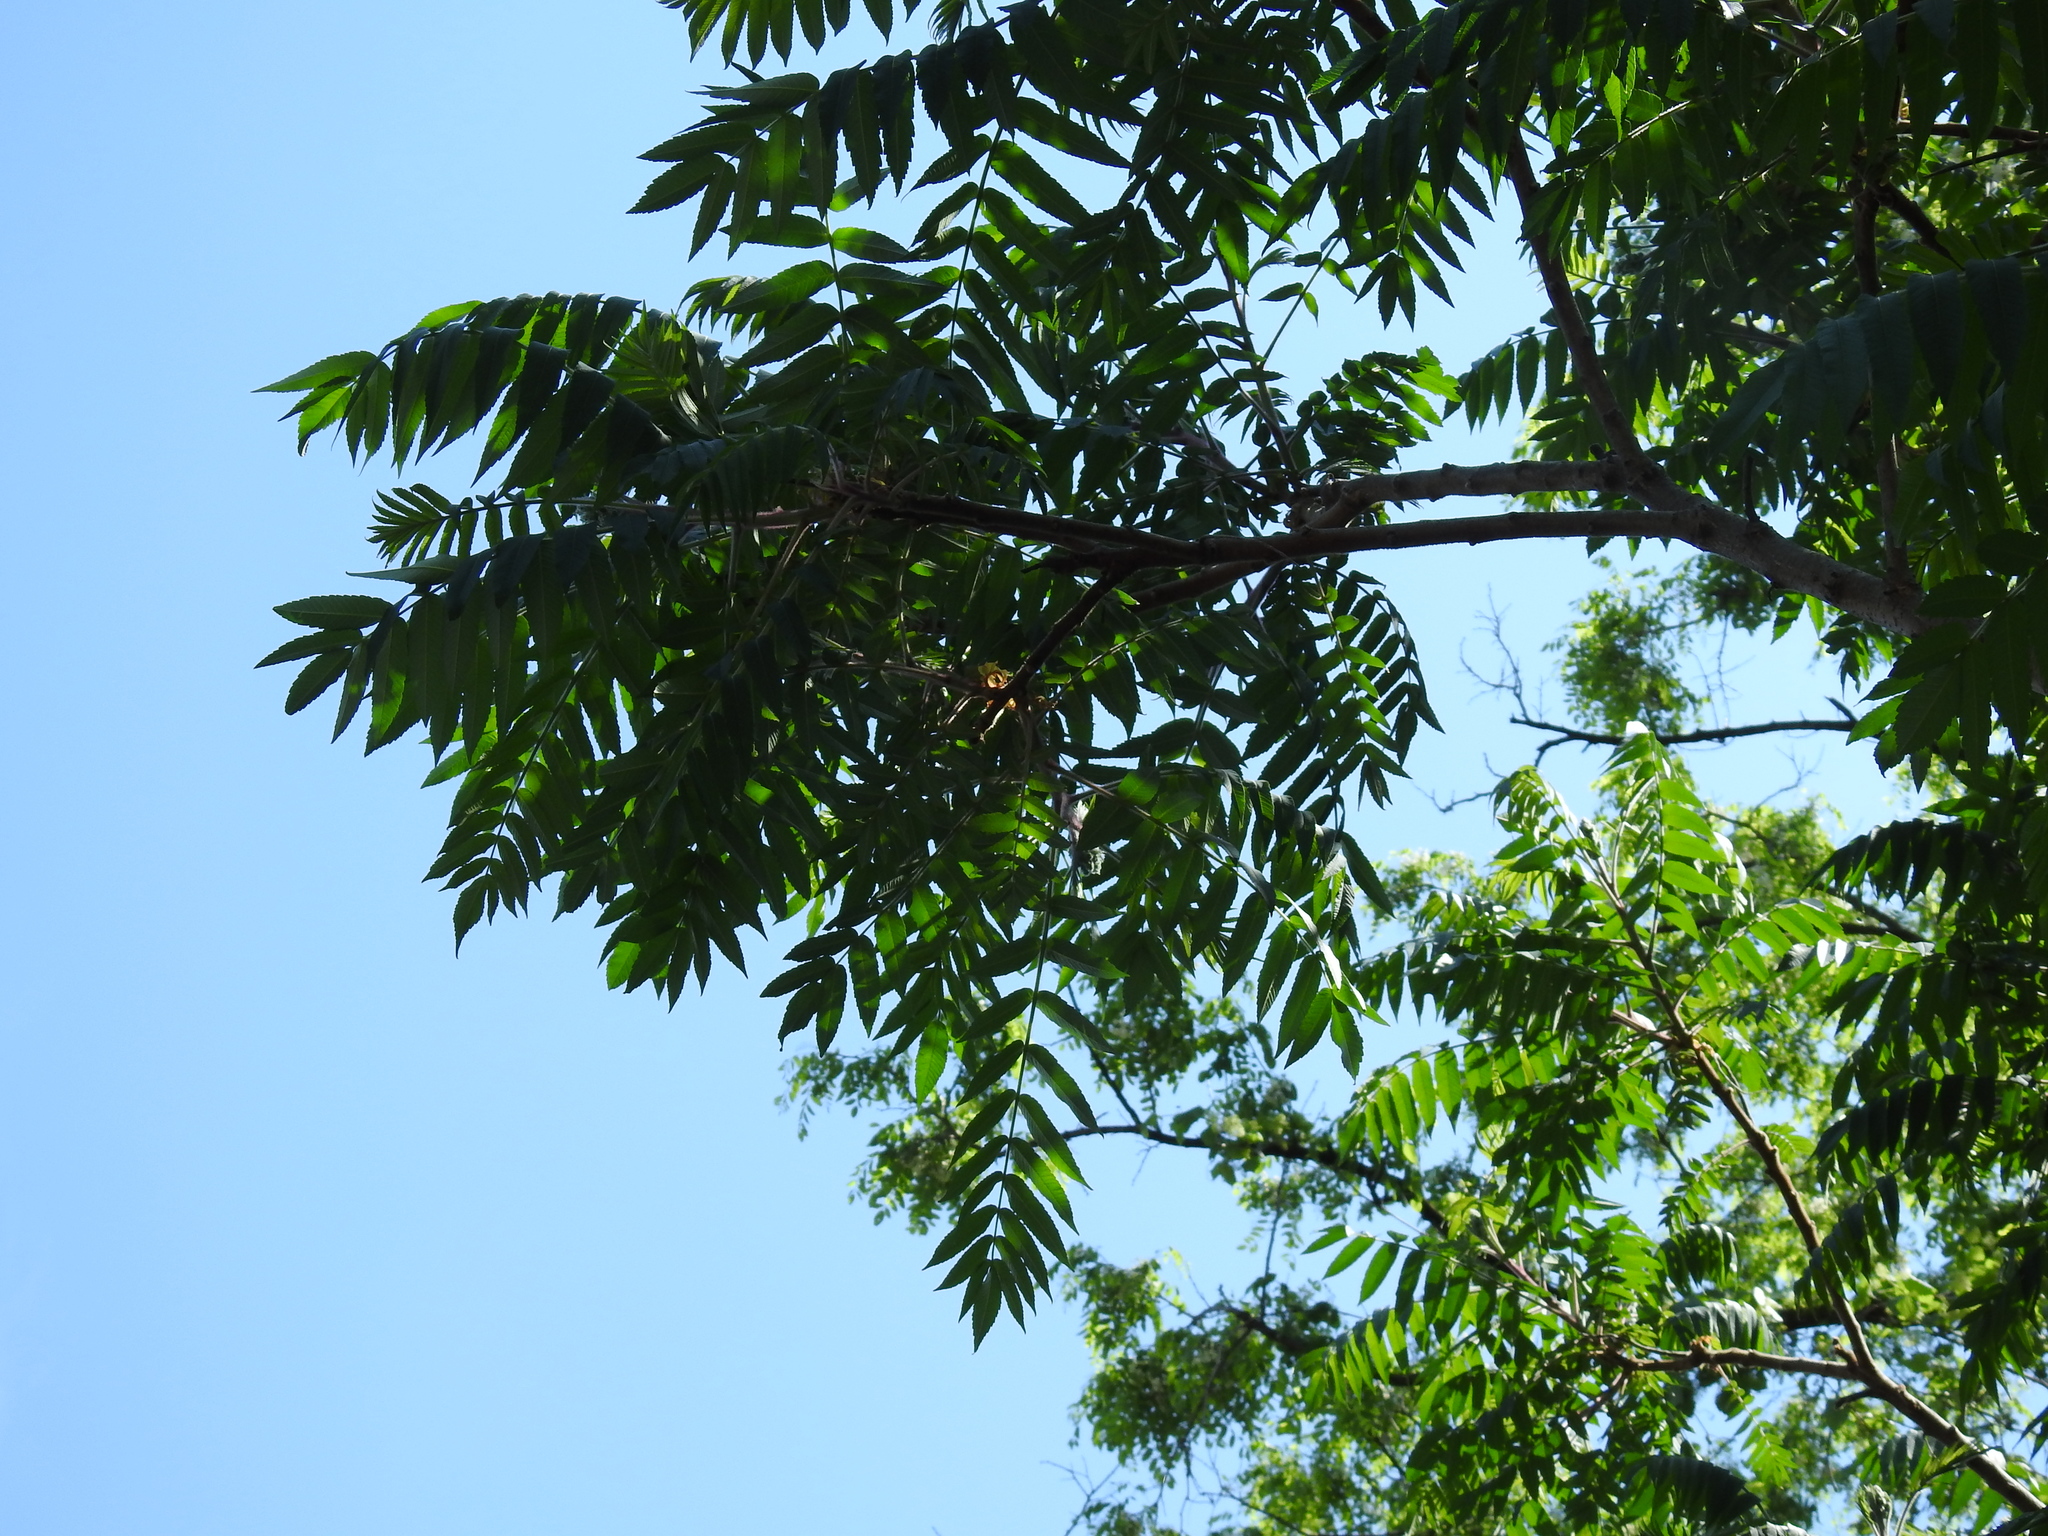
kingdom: Plantae
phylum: Tracheophyta
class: Magnoliopsida
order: Sapindales
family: Anacardiaceae
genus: Rhus
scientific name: Rhus typhina
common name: Staghorn sumac
